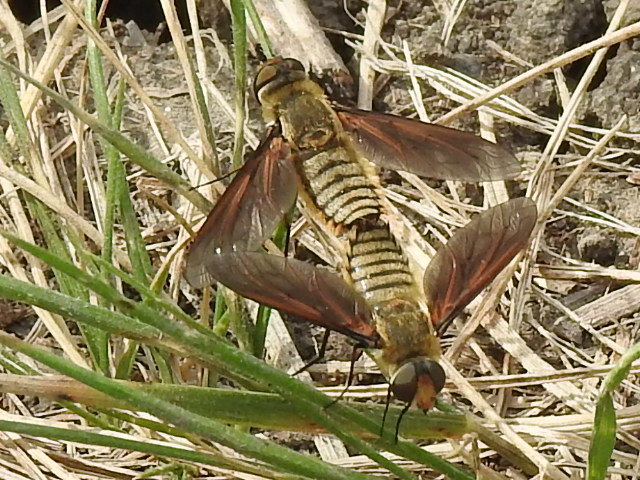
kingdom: Animalia
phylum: Arthropoda
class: Insecta
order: Diptera
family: Bombyliidae
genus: Poecilanthrax
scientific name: Poecilanthrax lucifer
